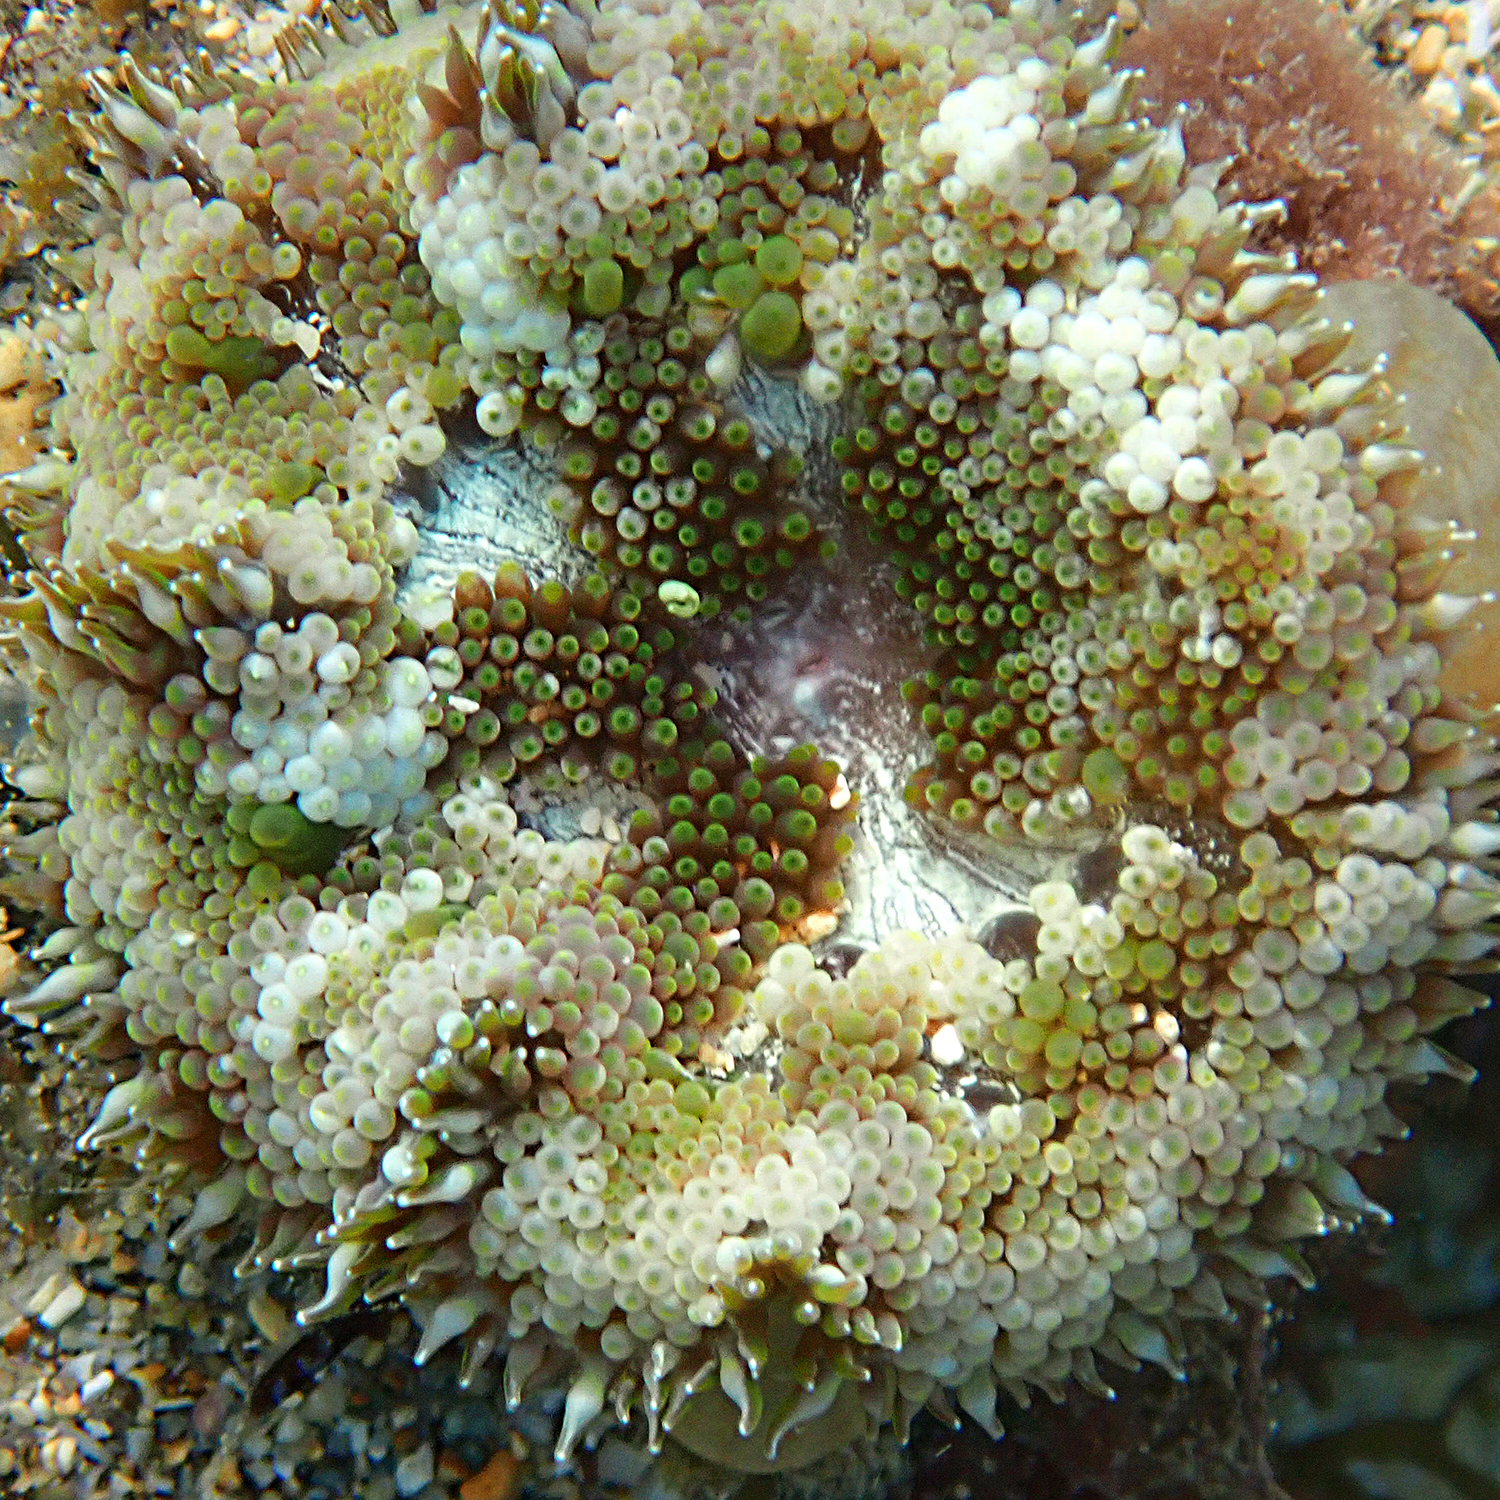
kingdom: Animalia
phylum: Cnidaria
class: Anthozoa
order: Actiniaria
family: Stichodactylidae
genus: Stichodactyla
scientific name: Stichodactyla tapetum
